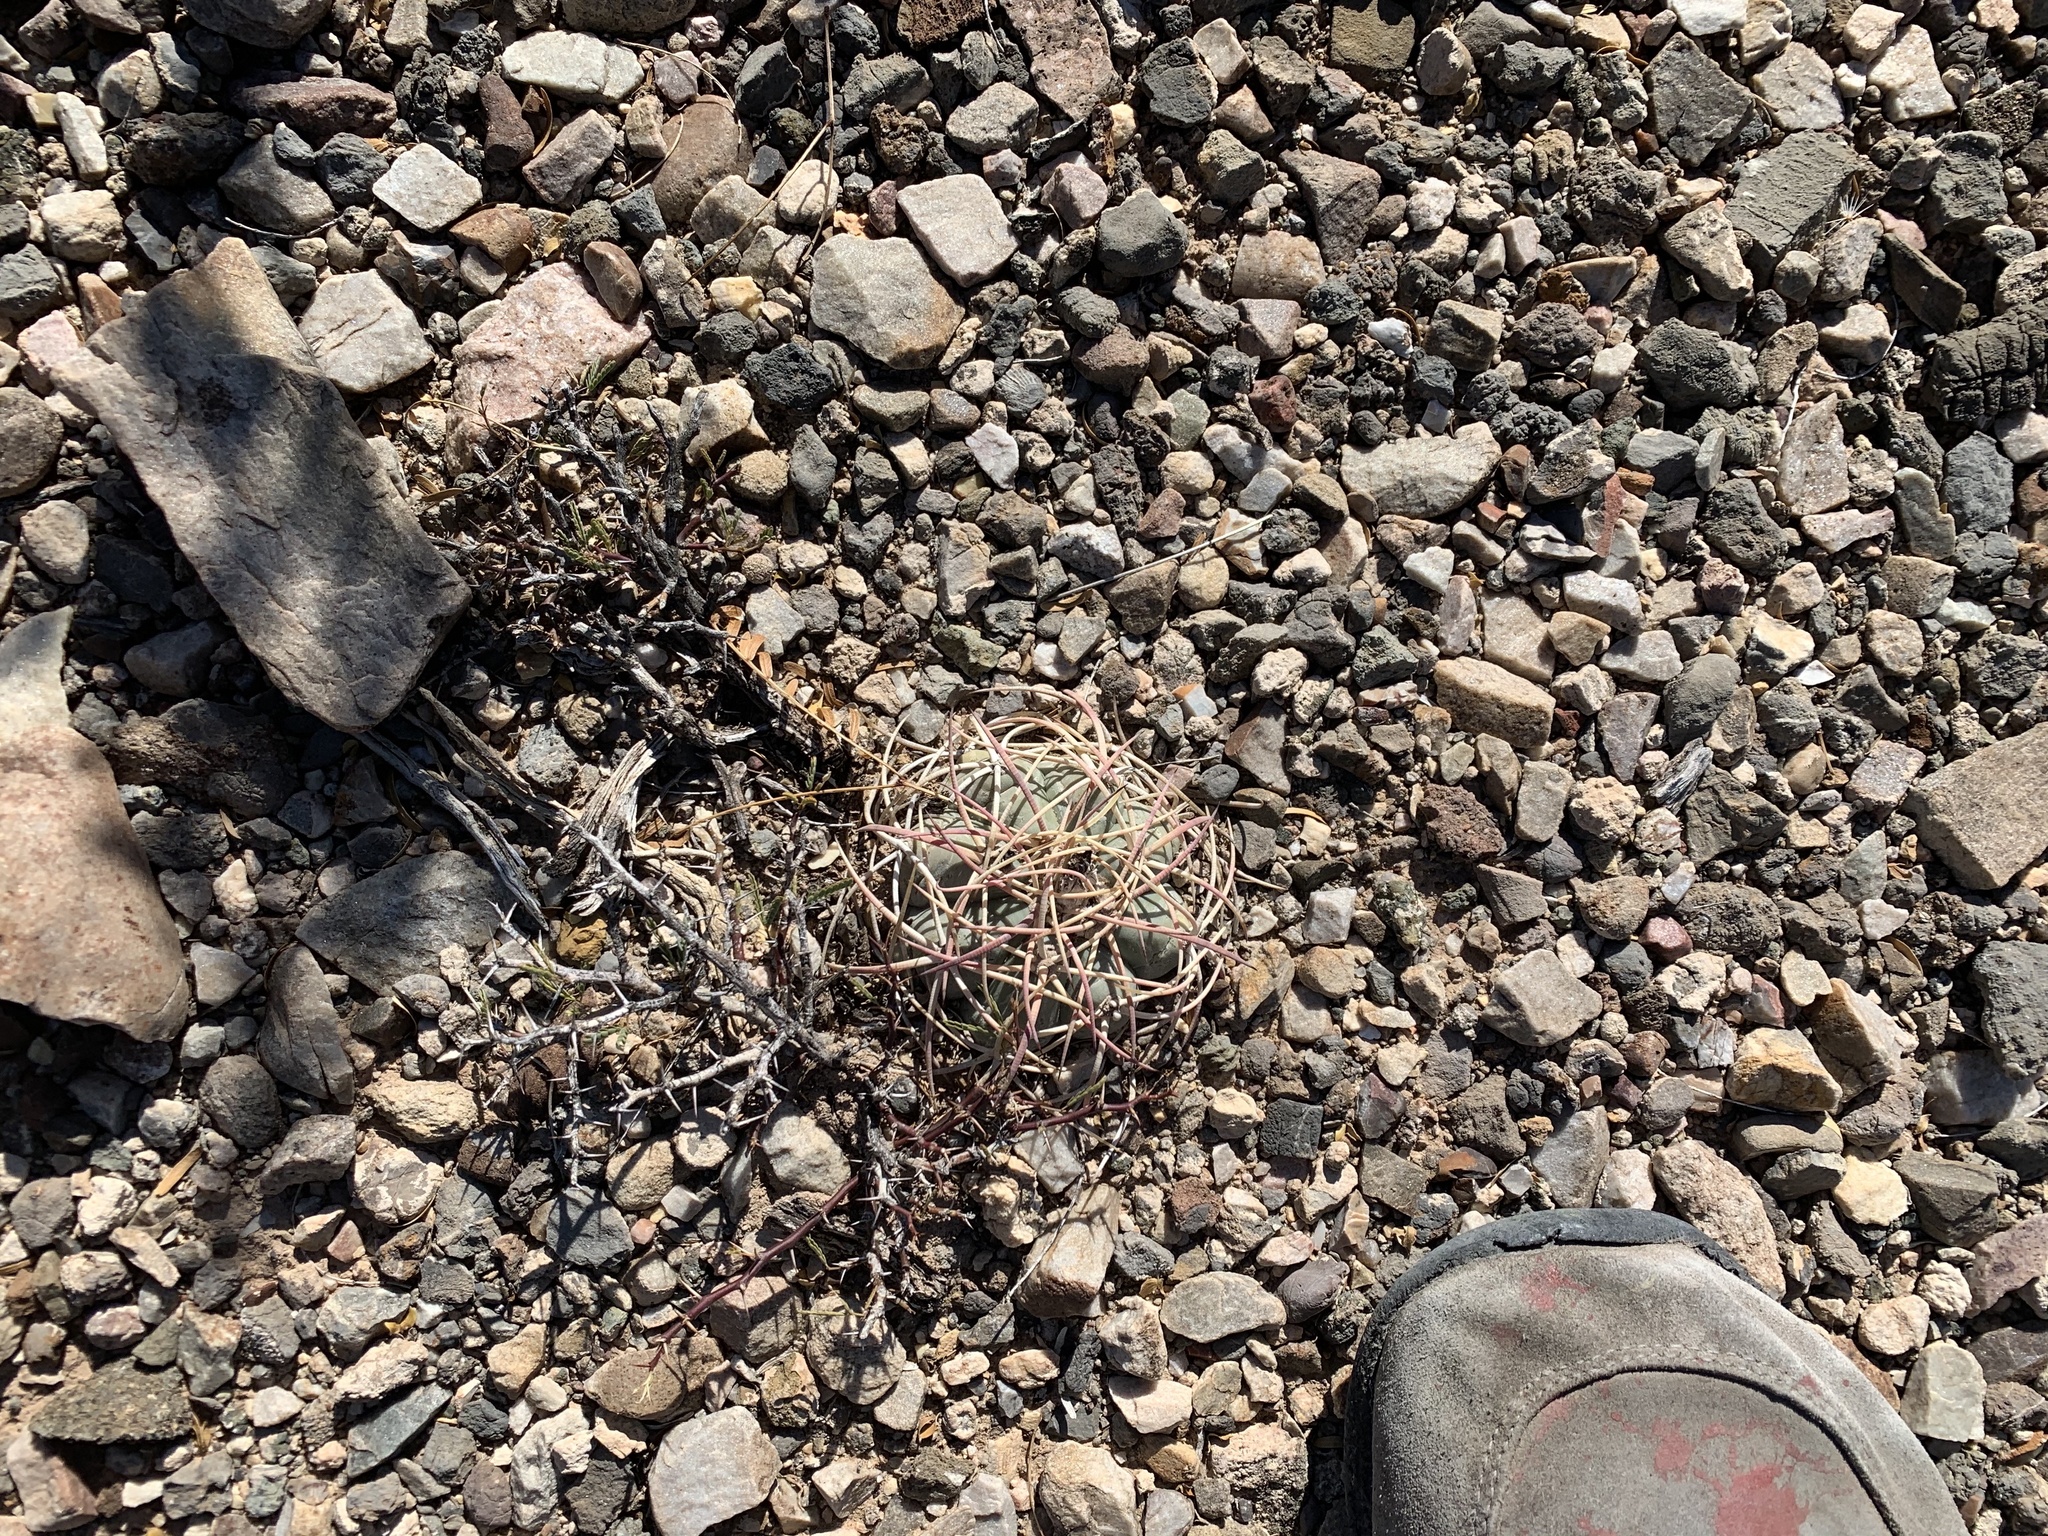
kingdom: Plantae
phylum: Tracheophyta
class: Magnoliopsida
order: Caryophyllales
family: Cactaceae
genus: Echinocactus
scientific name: Echinocactus horizonthalonius
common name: Devilshead
